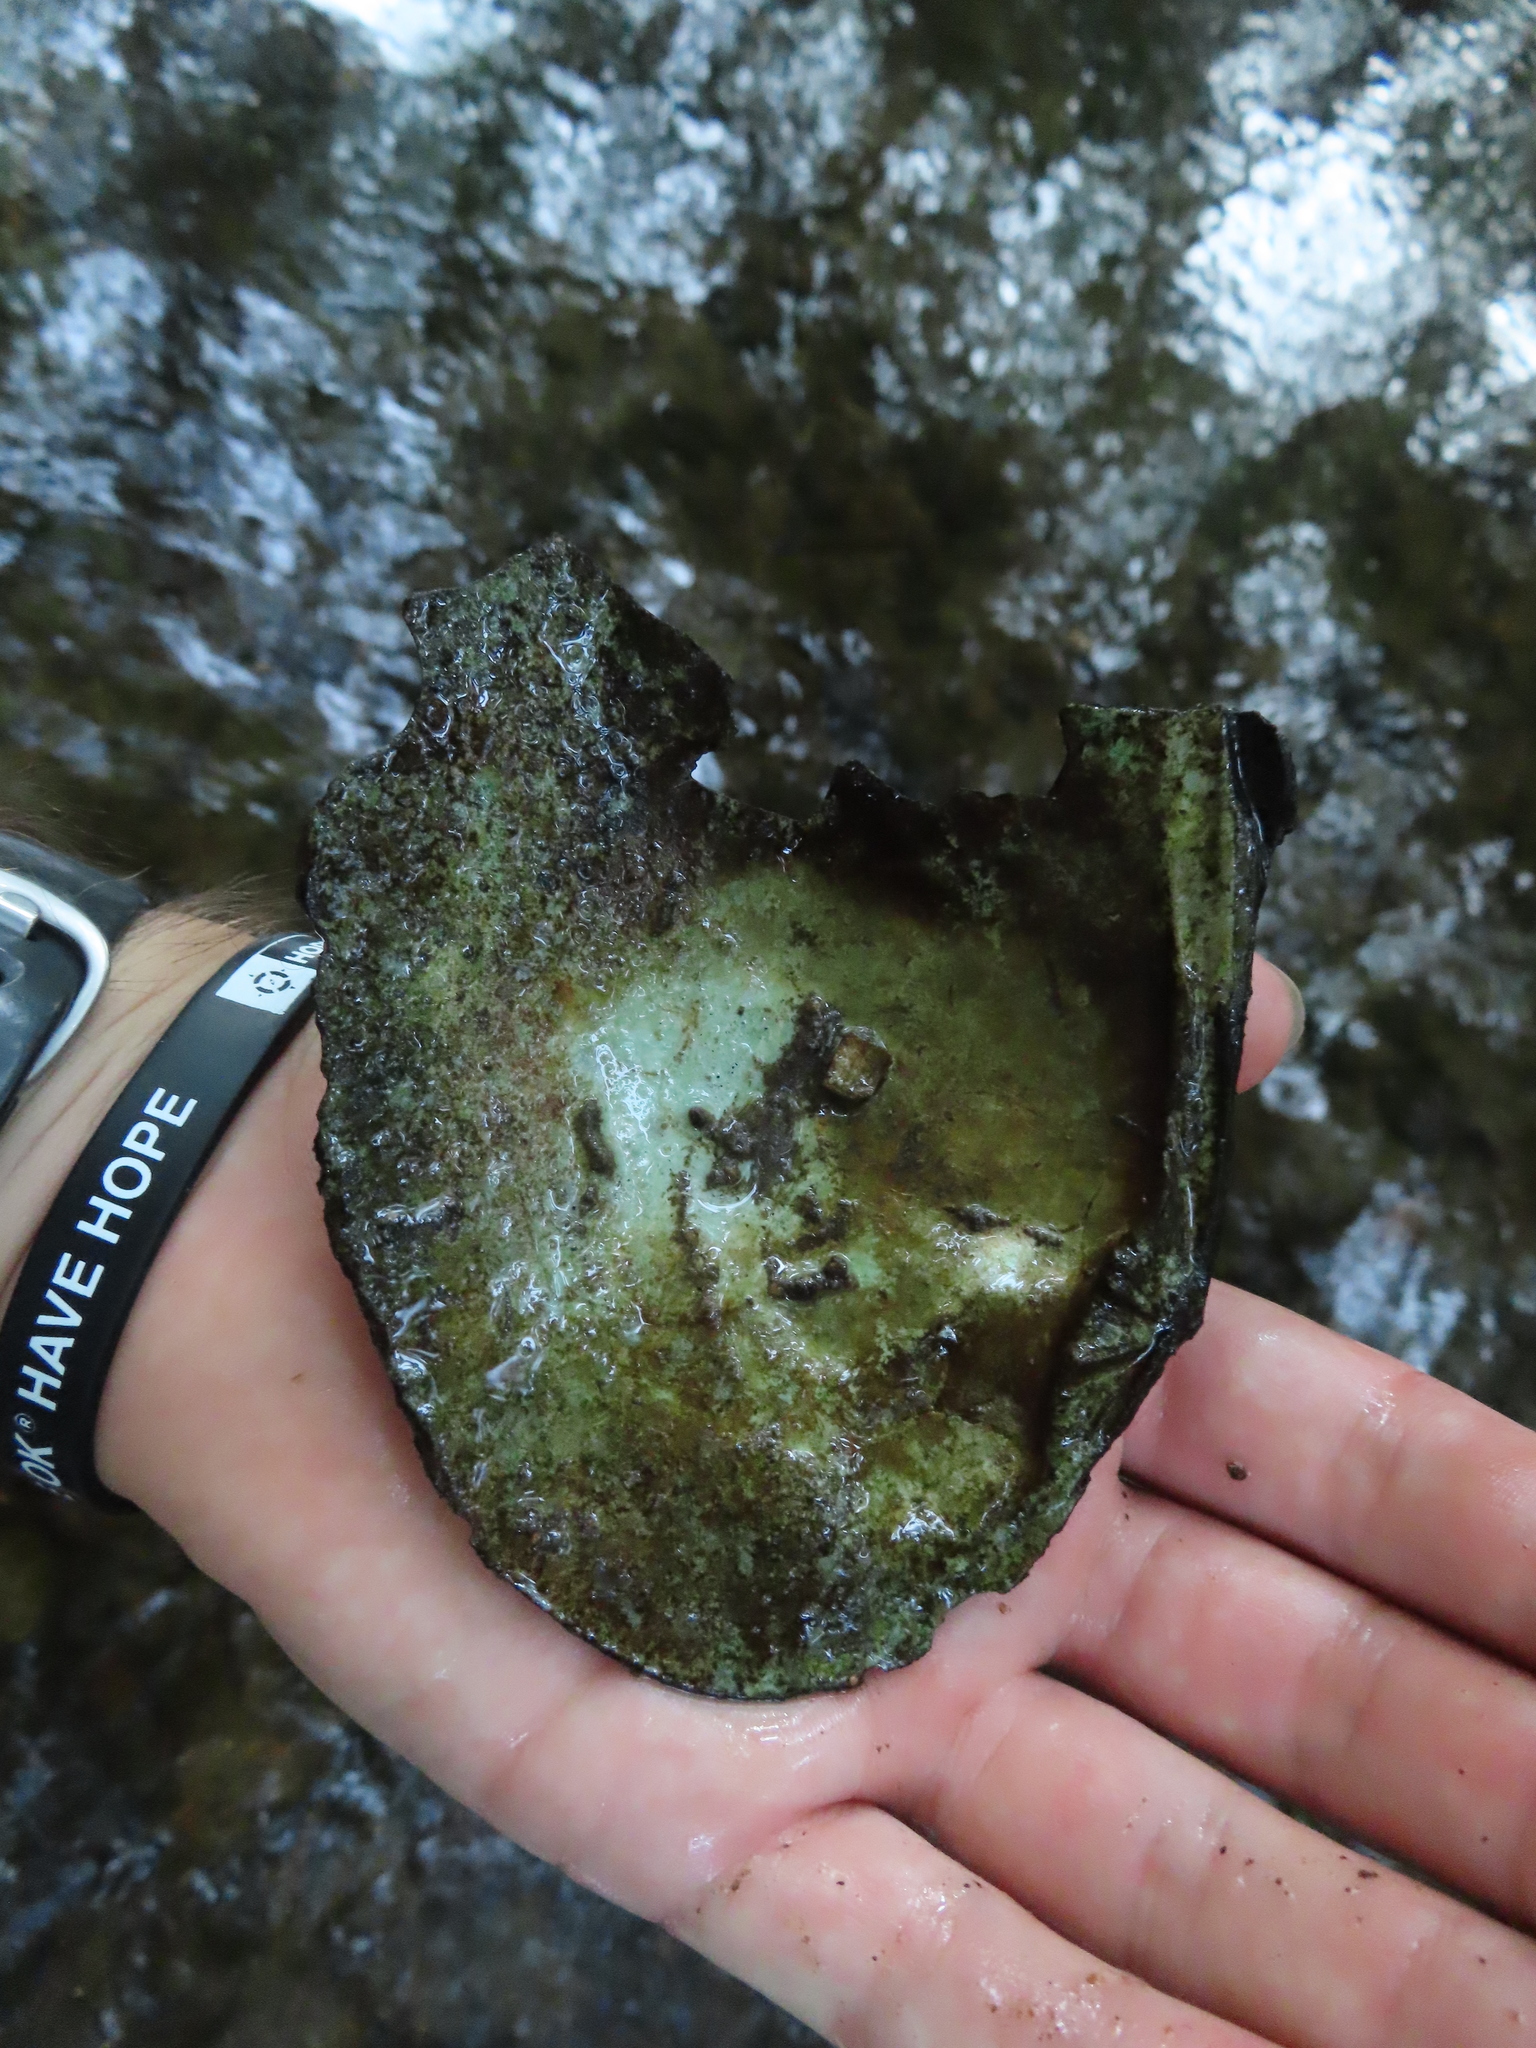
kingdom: Animalia
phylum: Mollusca
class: Bivalvia
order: Unionida
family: Unionidae
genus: Lasmigona
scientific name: Lasmigona complanata
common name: White heelsplitter
